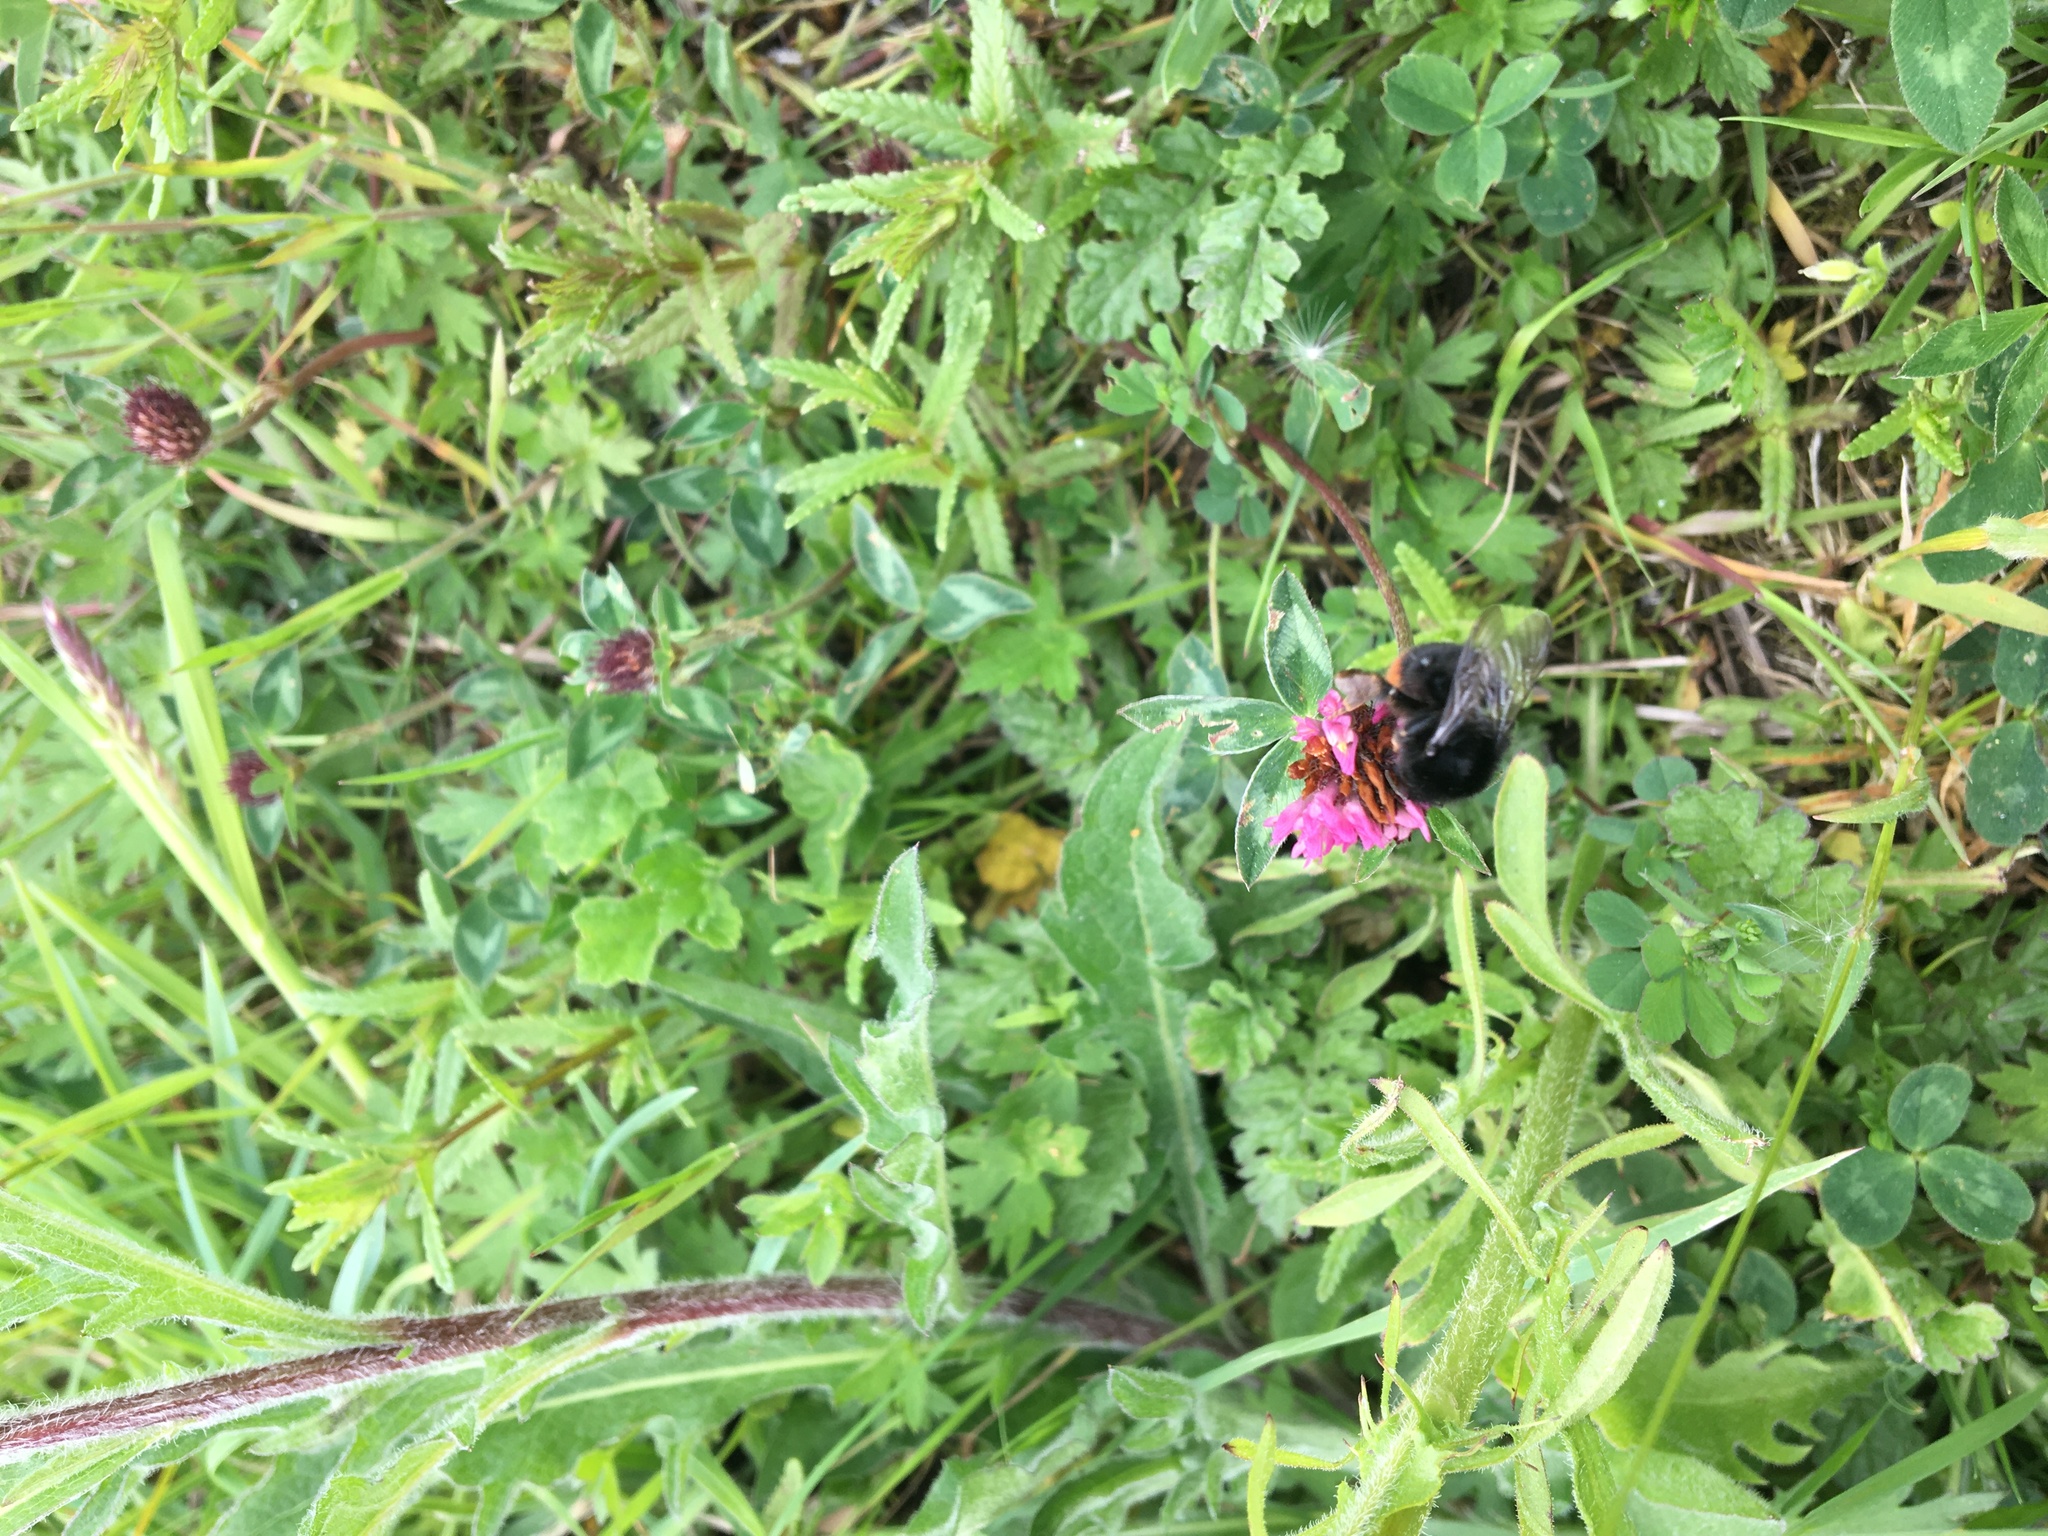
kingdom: Animalia
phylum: Arthropoda
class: Insecta
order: Hymenoptera
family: Apidae
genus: Bombus
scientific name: Bombus lapidarius
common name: Large red-tailed humble-bee
